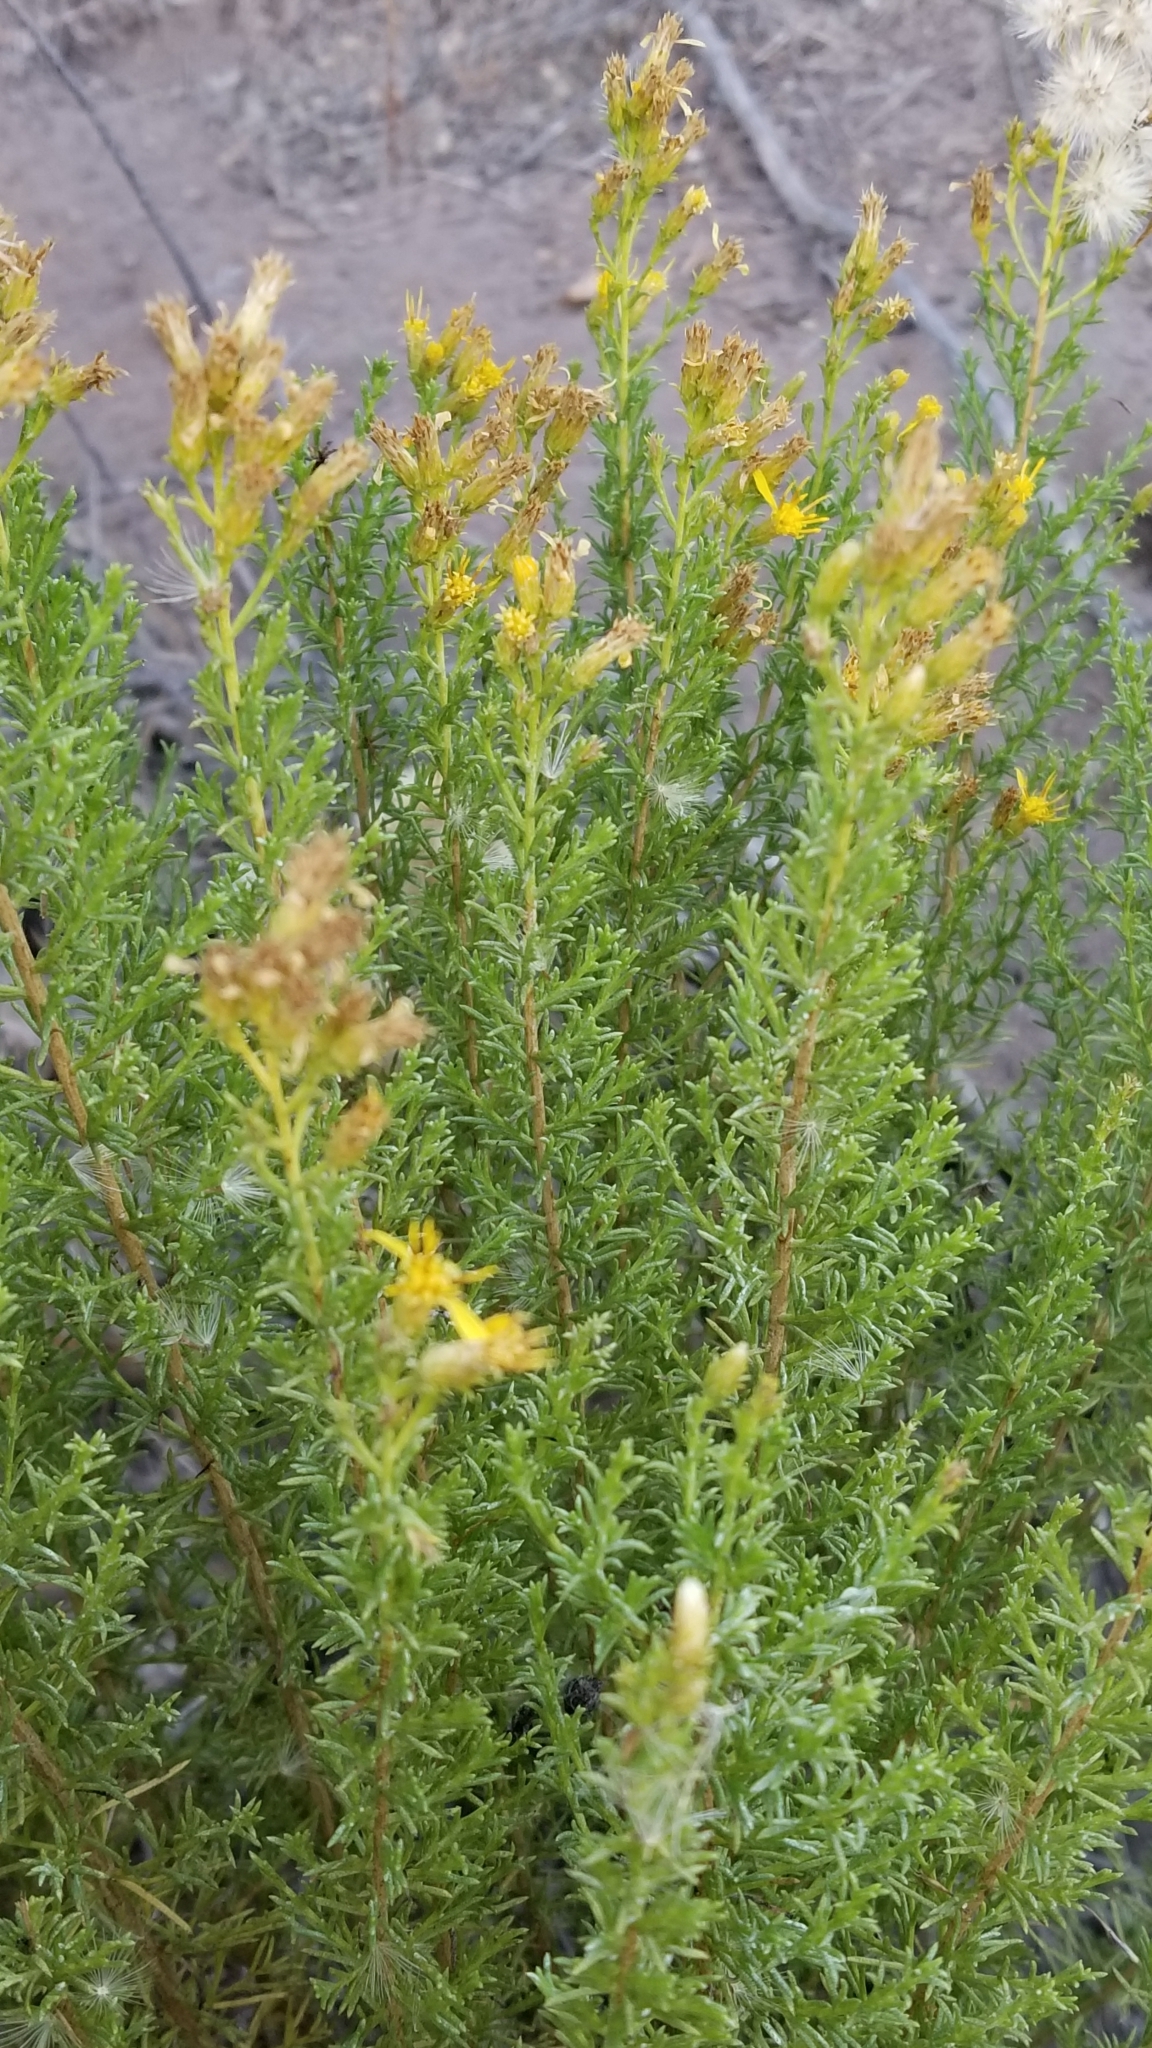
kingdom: Plantae
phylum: Tracheophyta
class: Magnoliopsida
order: Asterales
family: Asteraceae
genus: Ericameria
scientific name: Ericameria ericoides
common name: California goldenbush
